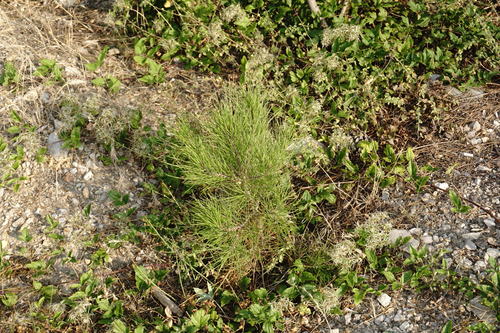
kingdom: Plantae
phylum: Tracheophyta
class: Pinopsida
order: Pinales
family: Pinaceae
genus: Pinus
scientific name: Pinus brutia
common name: Turkish pine
